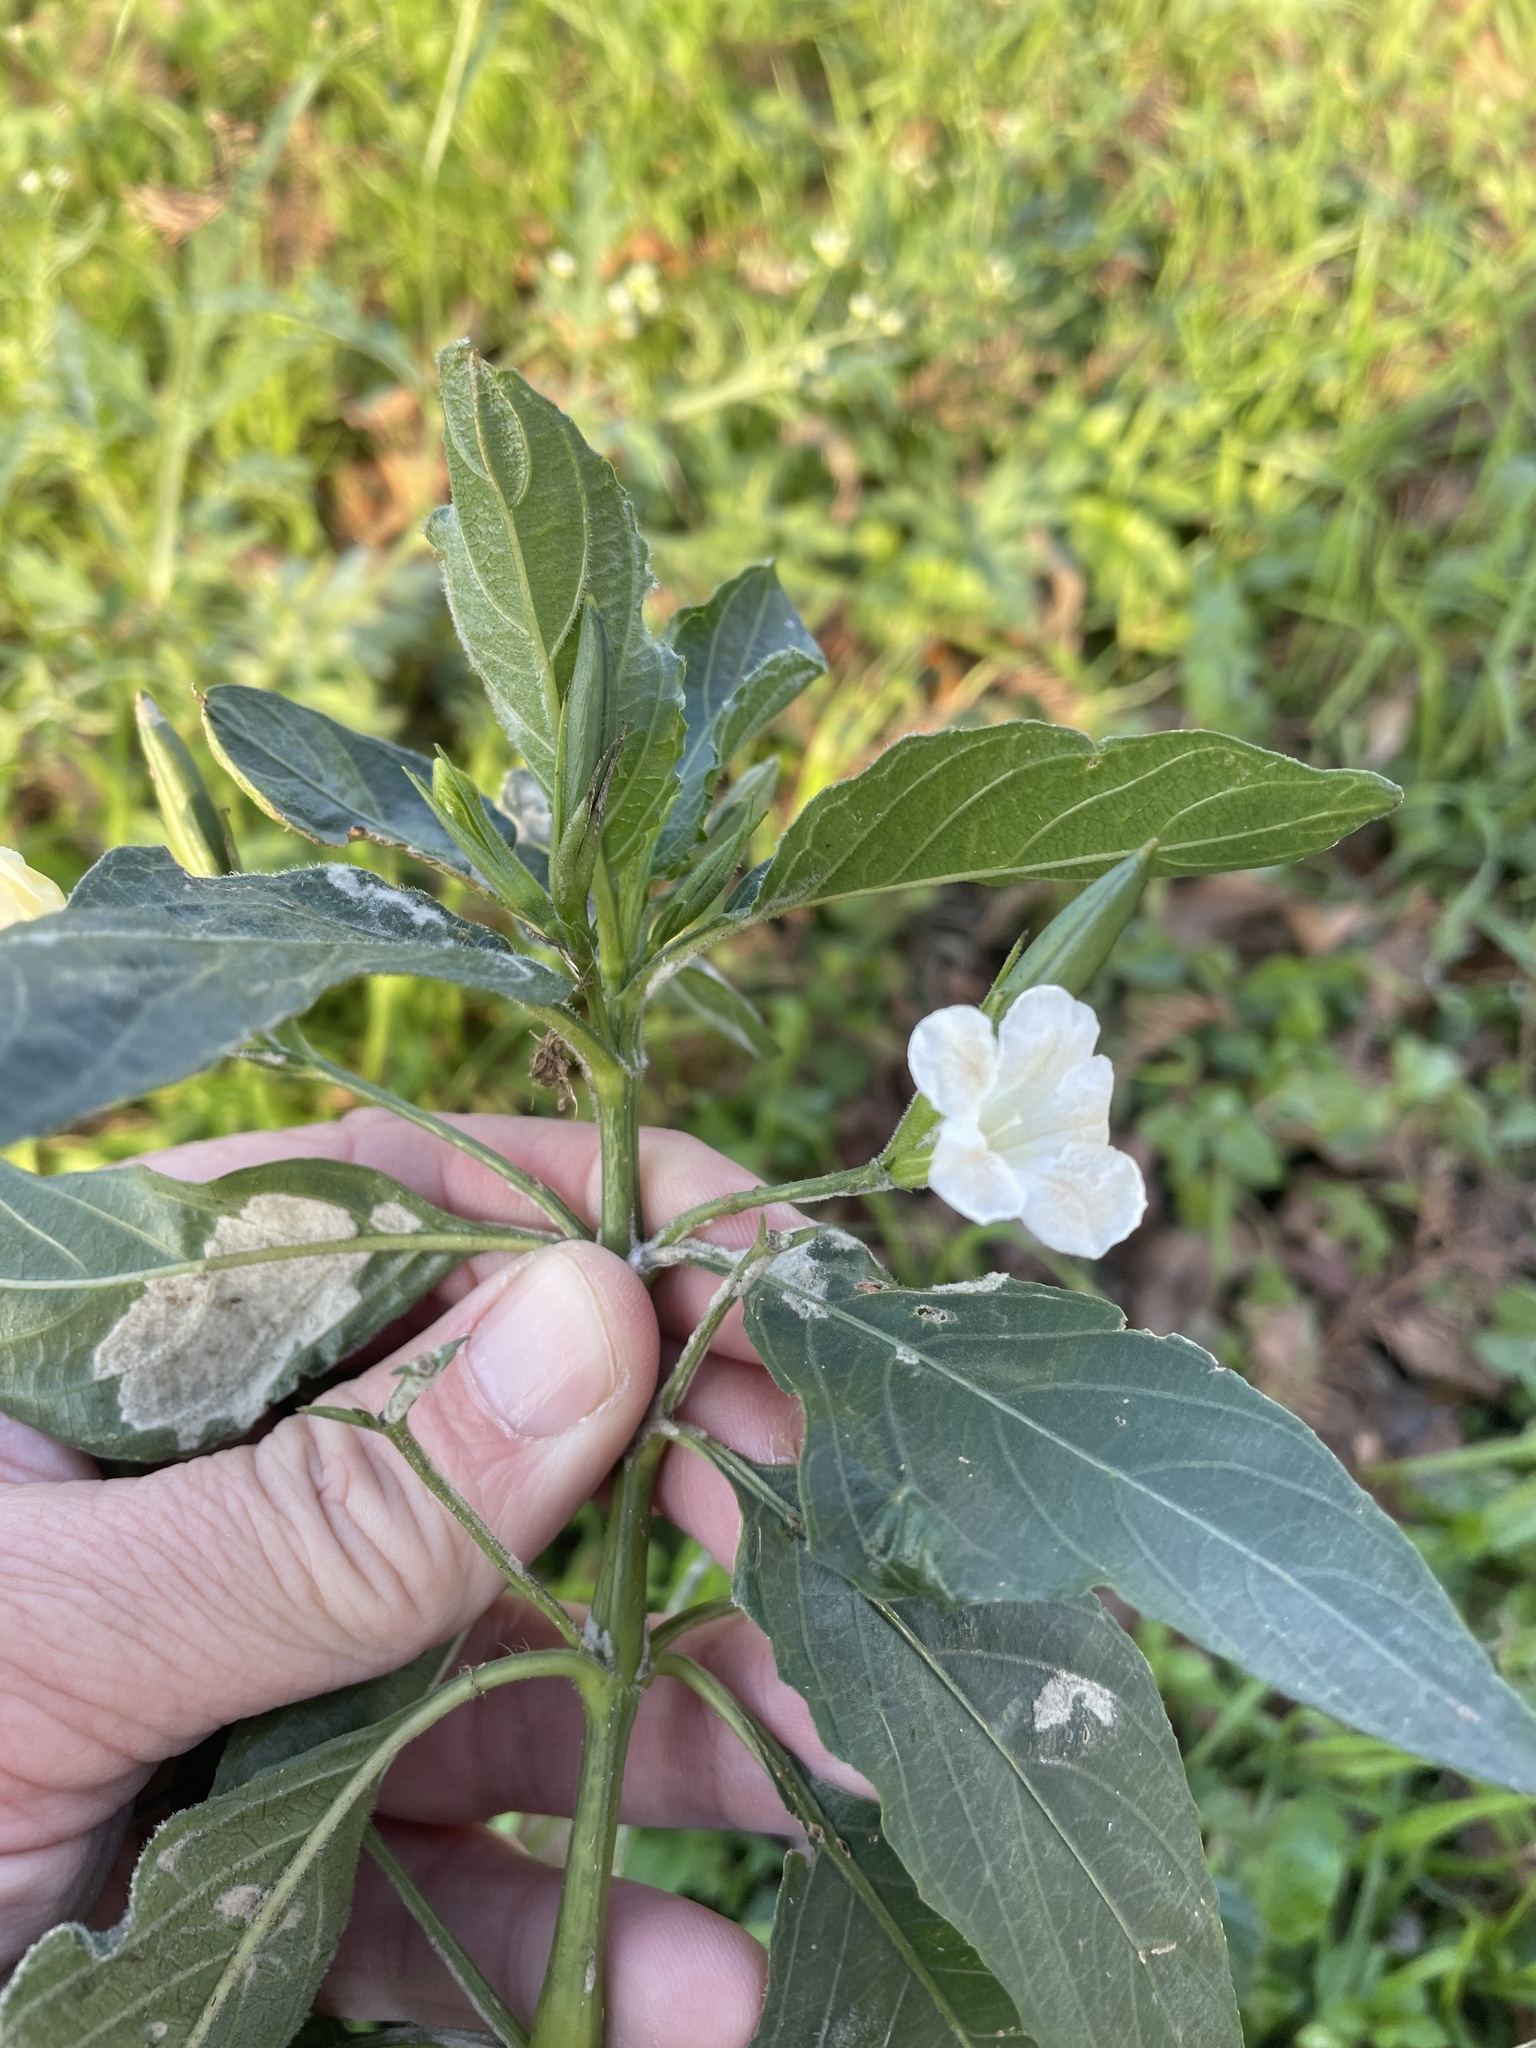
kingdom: Plantae
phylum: Tracheophyta
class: Magnoliopsida
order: Lamiales
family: Acanthaceae
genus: Ruellia
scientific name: Ruellia simplex
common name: Softseed wild petunia
